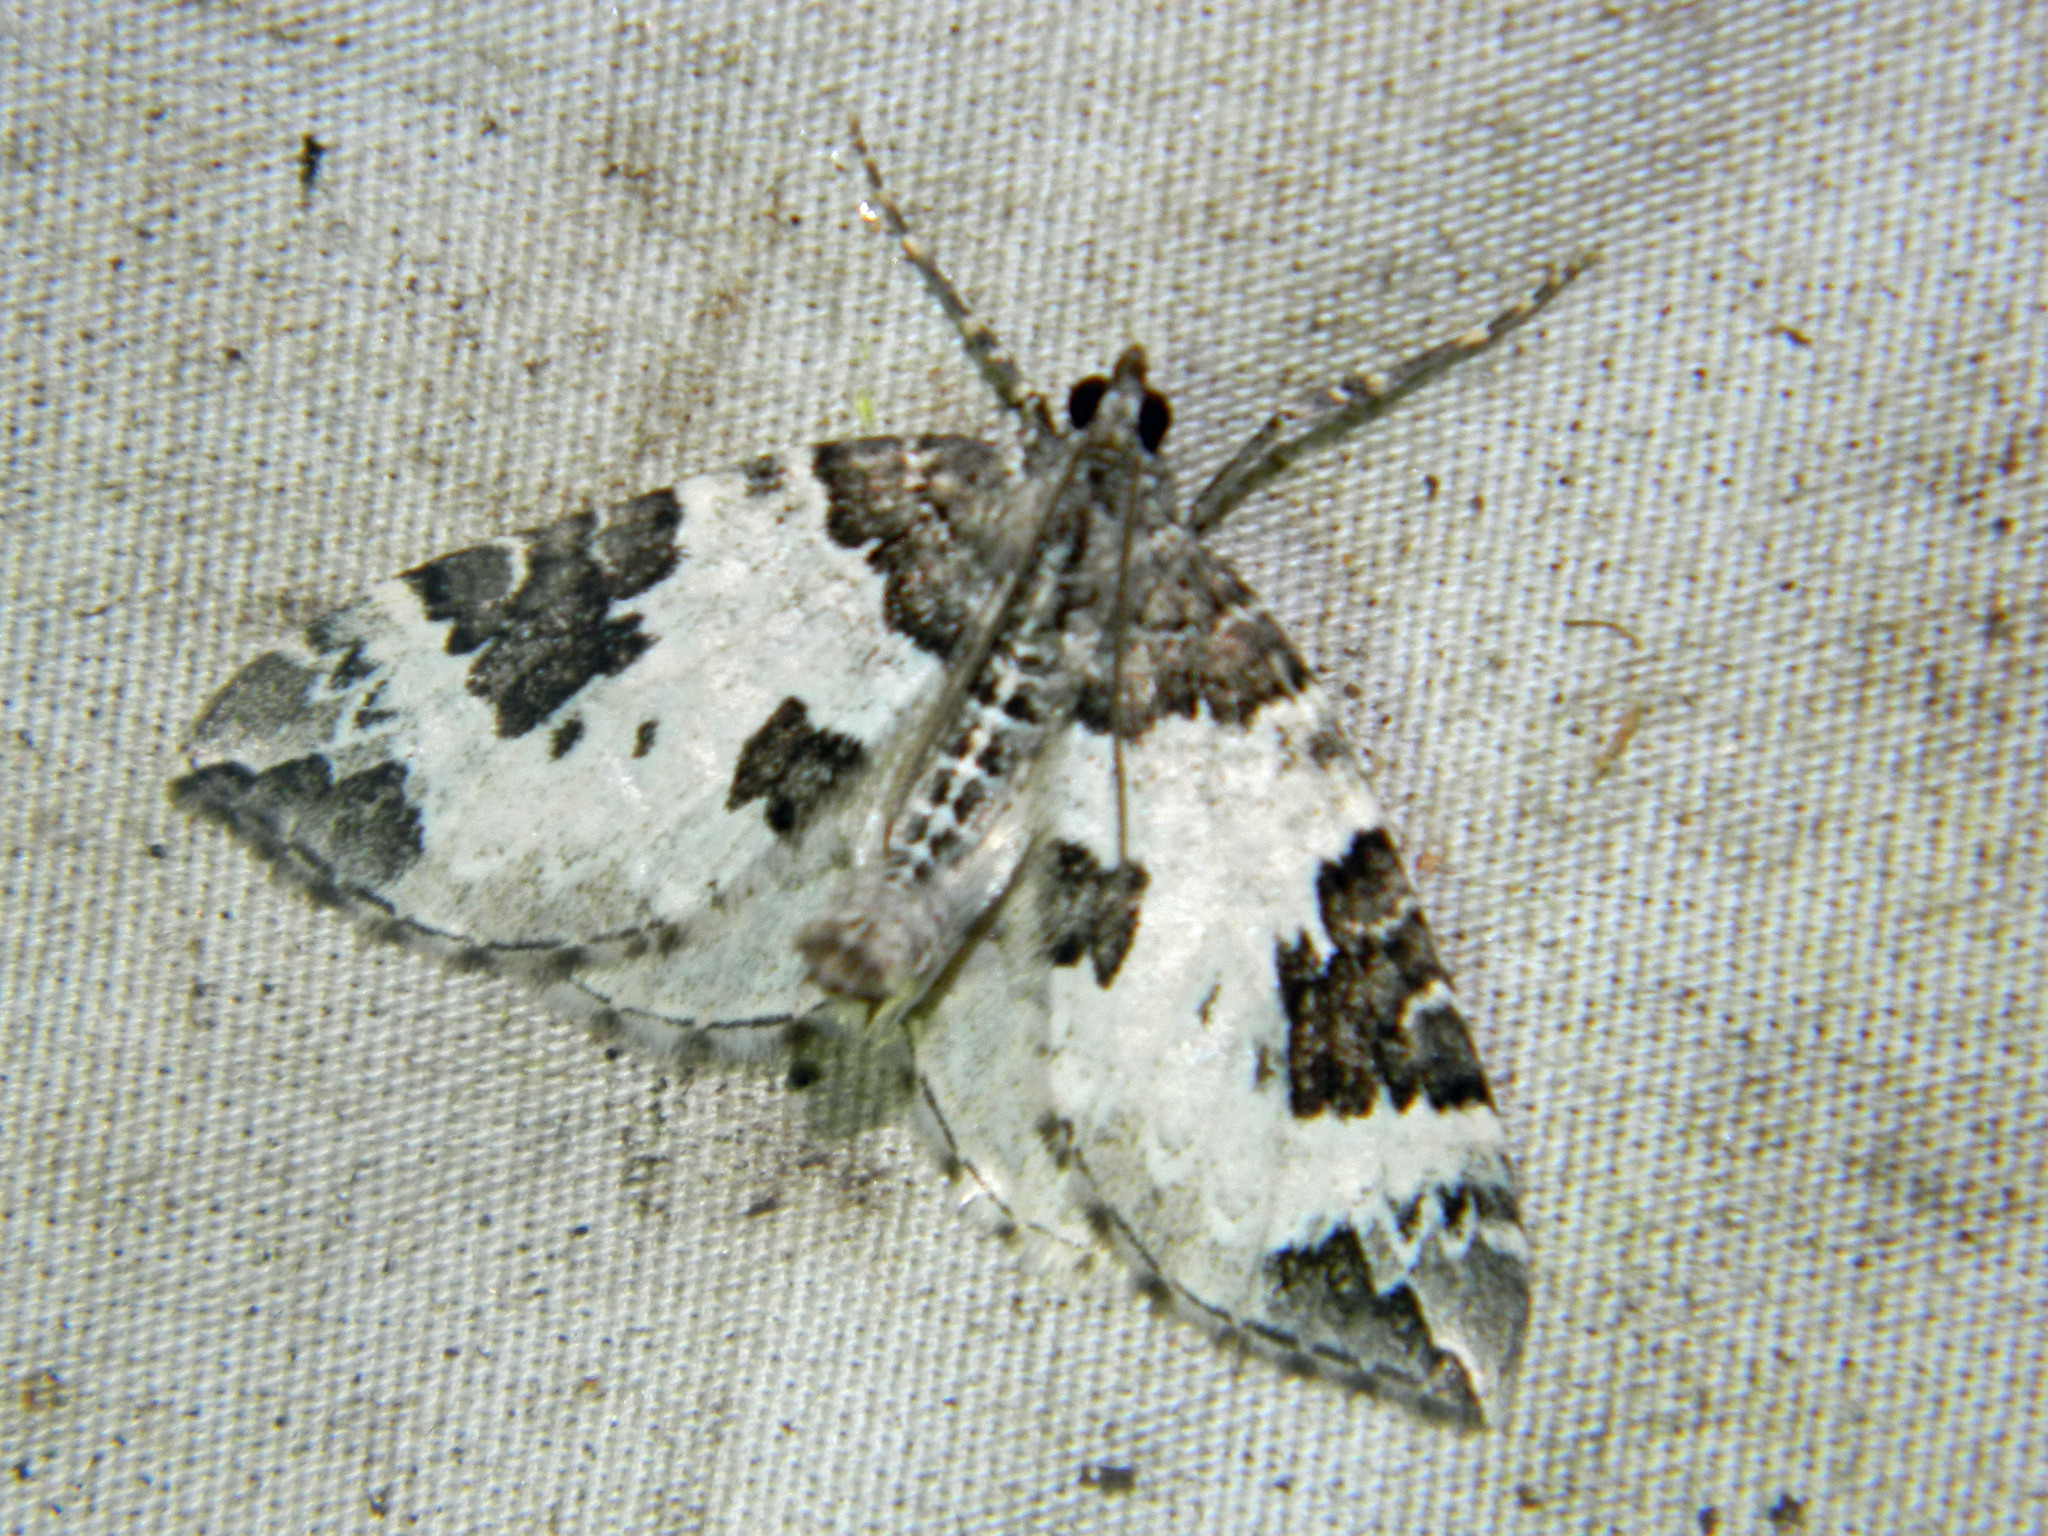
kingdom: Animalia
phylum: Arthropoda
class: Insecta
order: Lepidoptera
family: Geometridae
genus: Eulithis
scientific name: Eulithis explanata
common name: White eulithis
